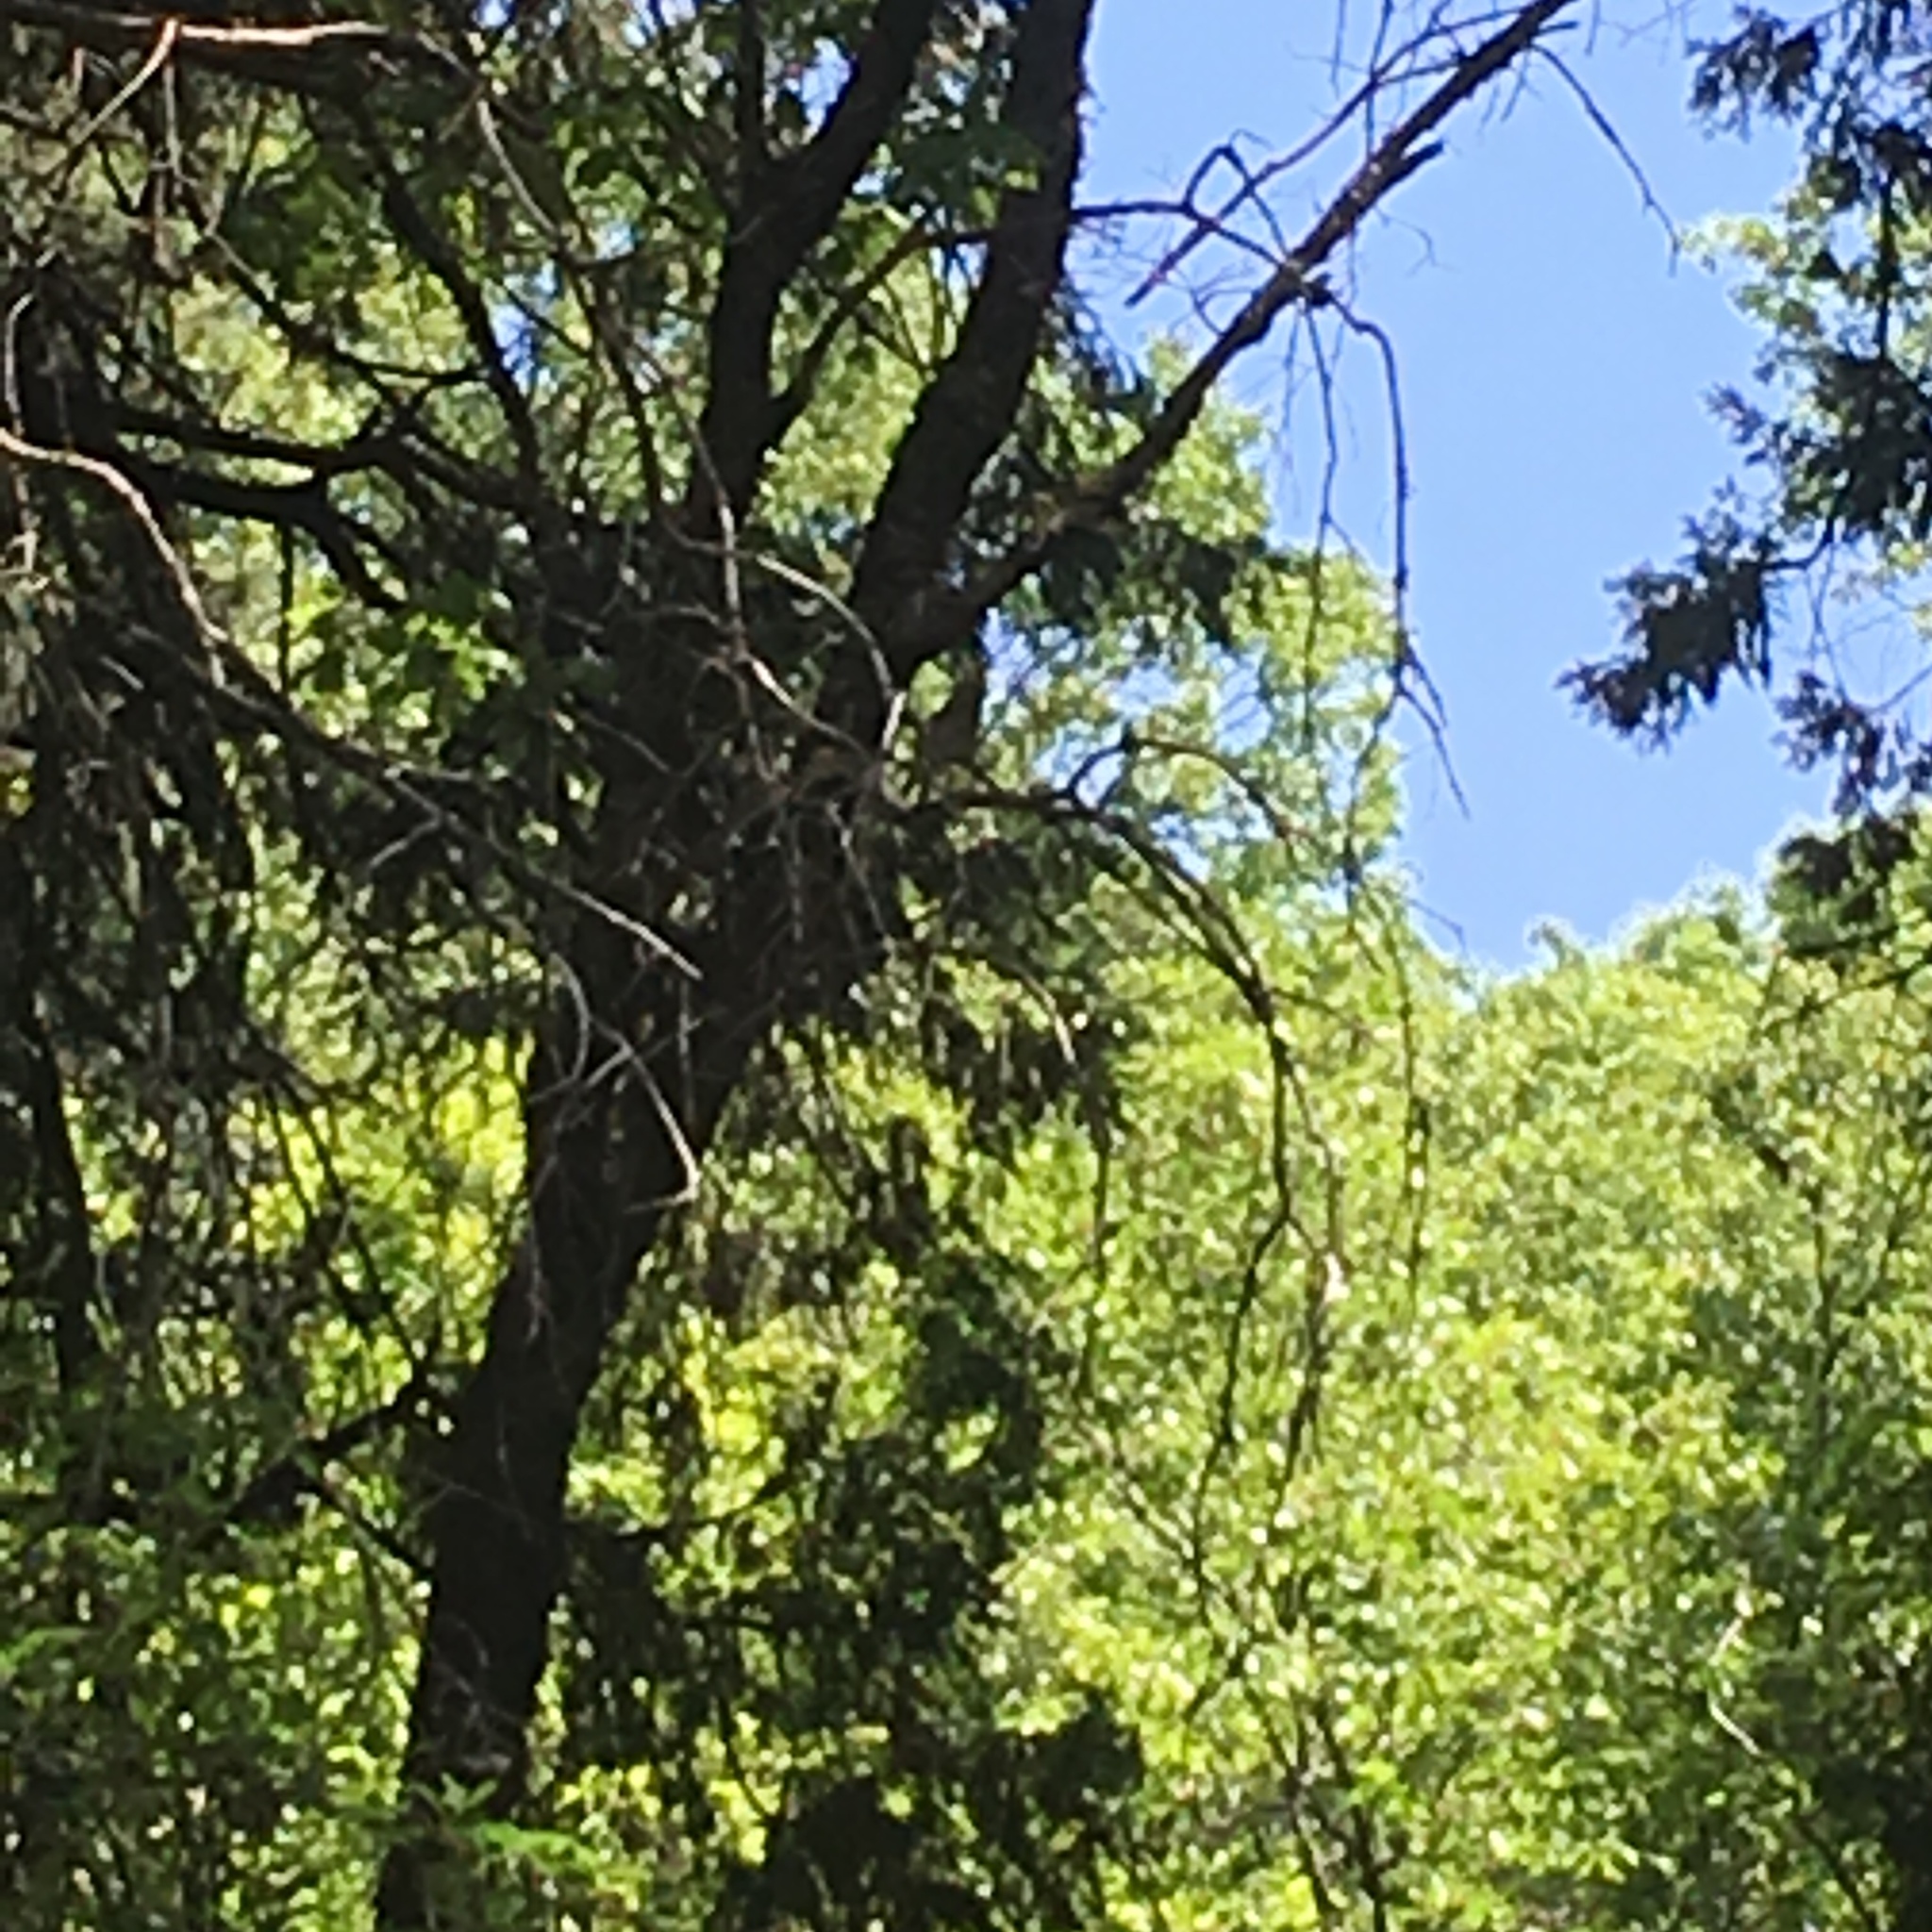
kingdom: Animalia
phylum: Chordata
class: Aves
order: Accipitriformes
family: Accipitridae
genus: Buteo
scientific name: Buteo lineatus
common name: Red-shouldered hawk
